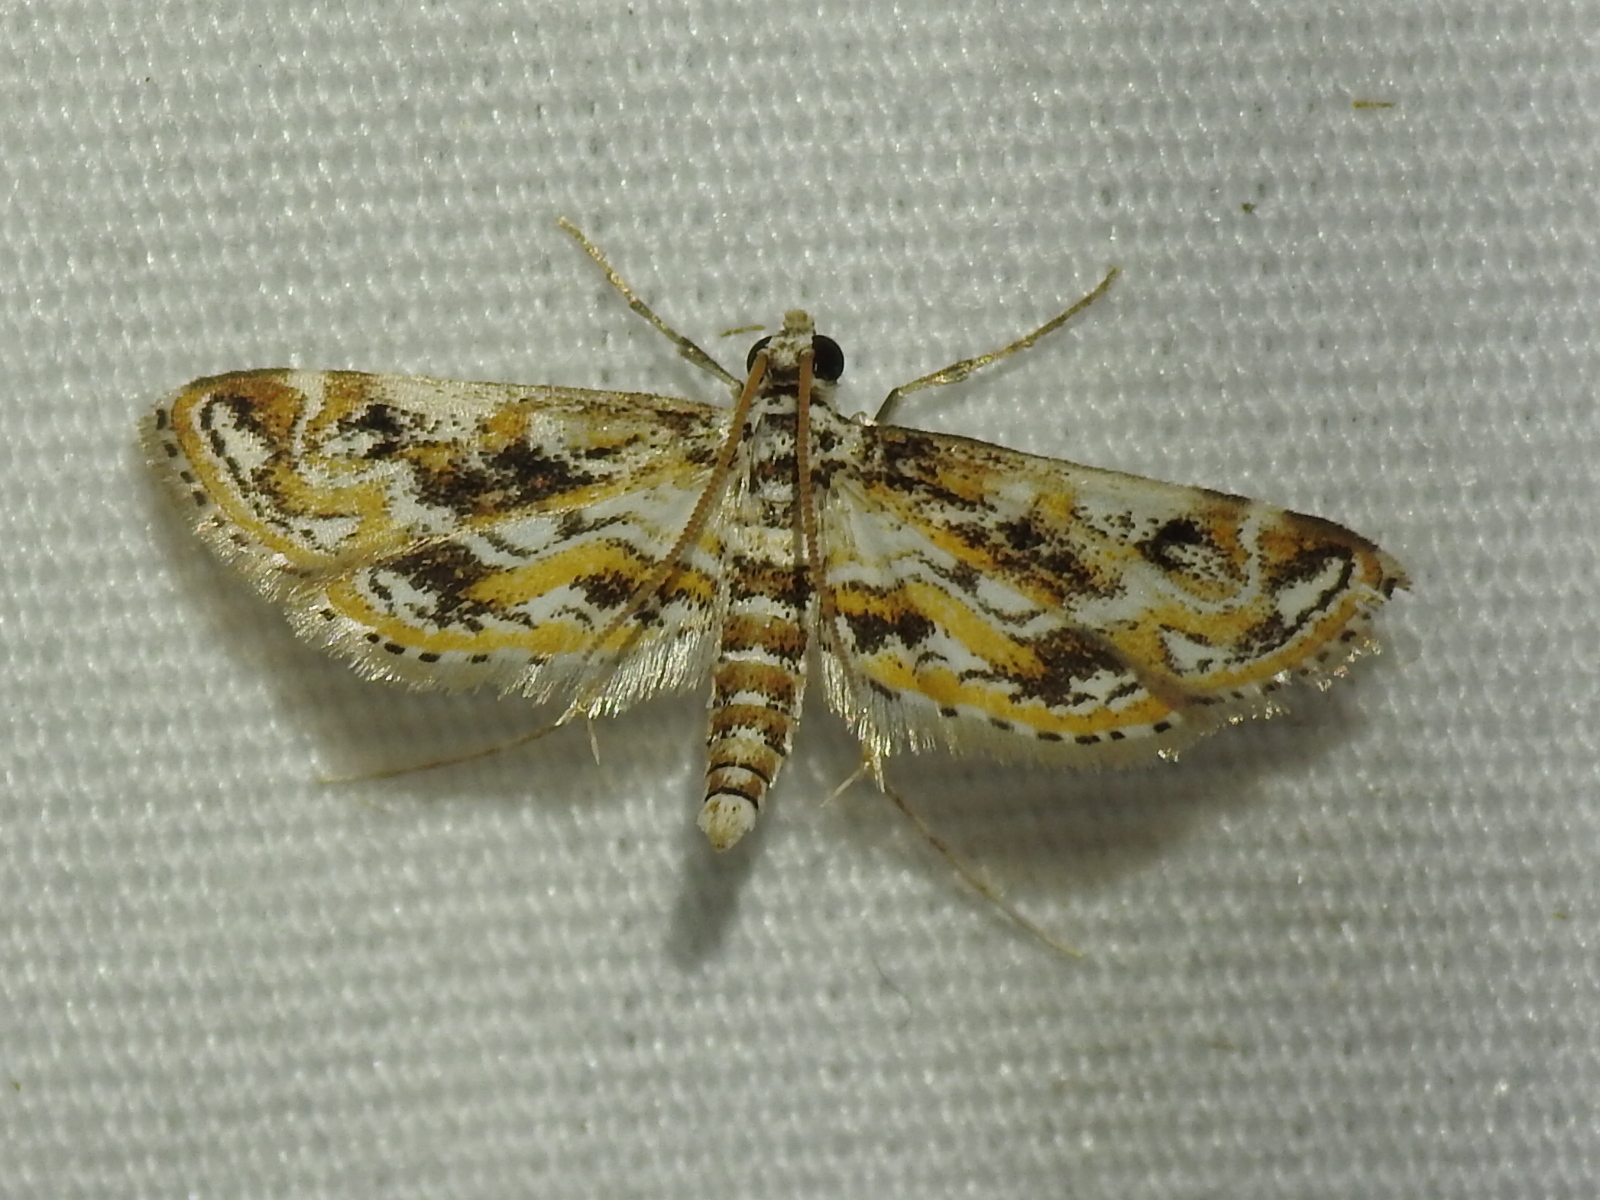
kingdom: Animalia
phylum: Arthropoda
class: Insecta
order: Lepidoptera
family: Crambidae
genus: Parapoynx
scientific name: Parapoynx diminutalis
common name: Hydrilla leafcutter
